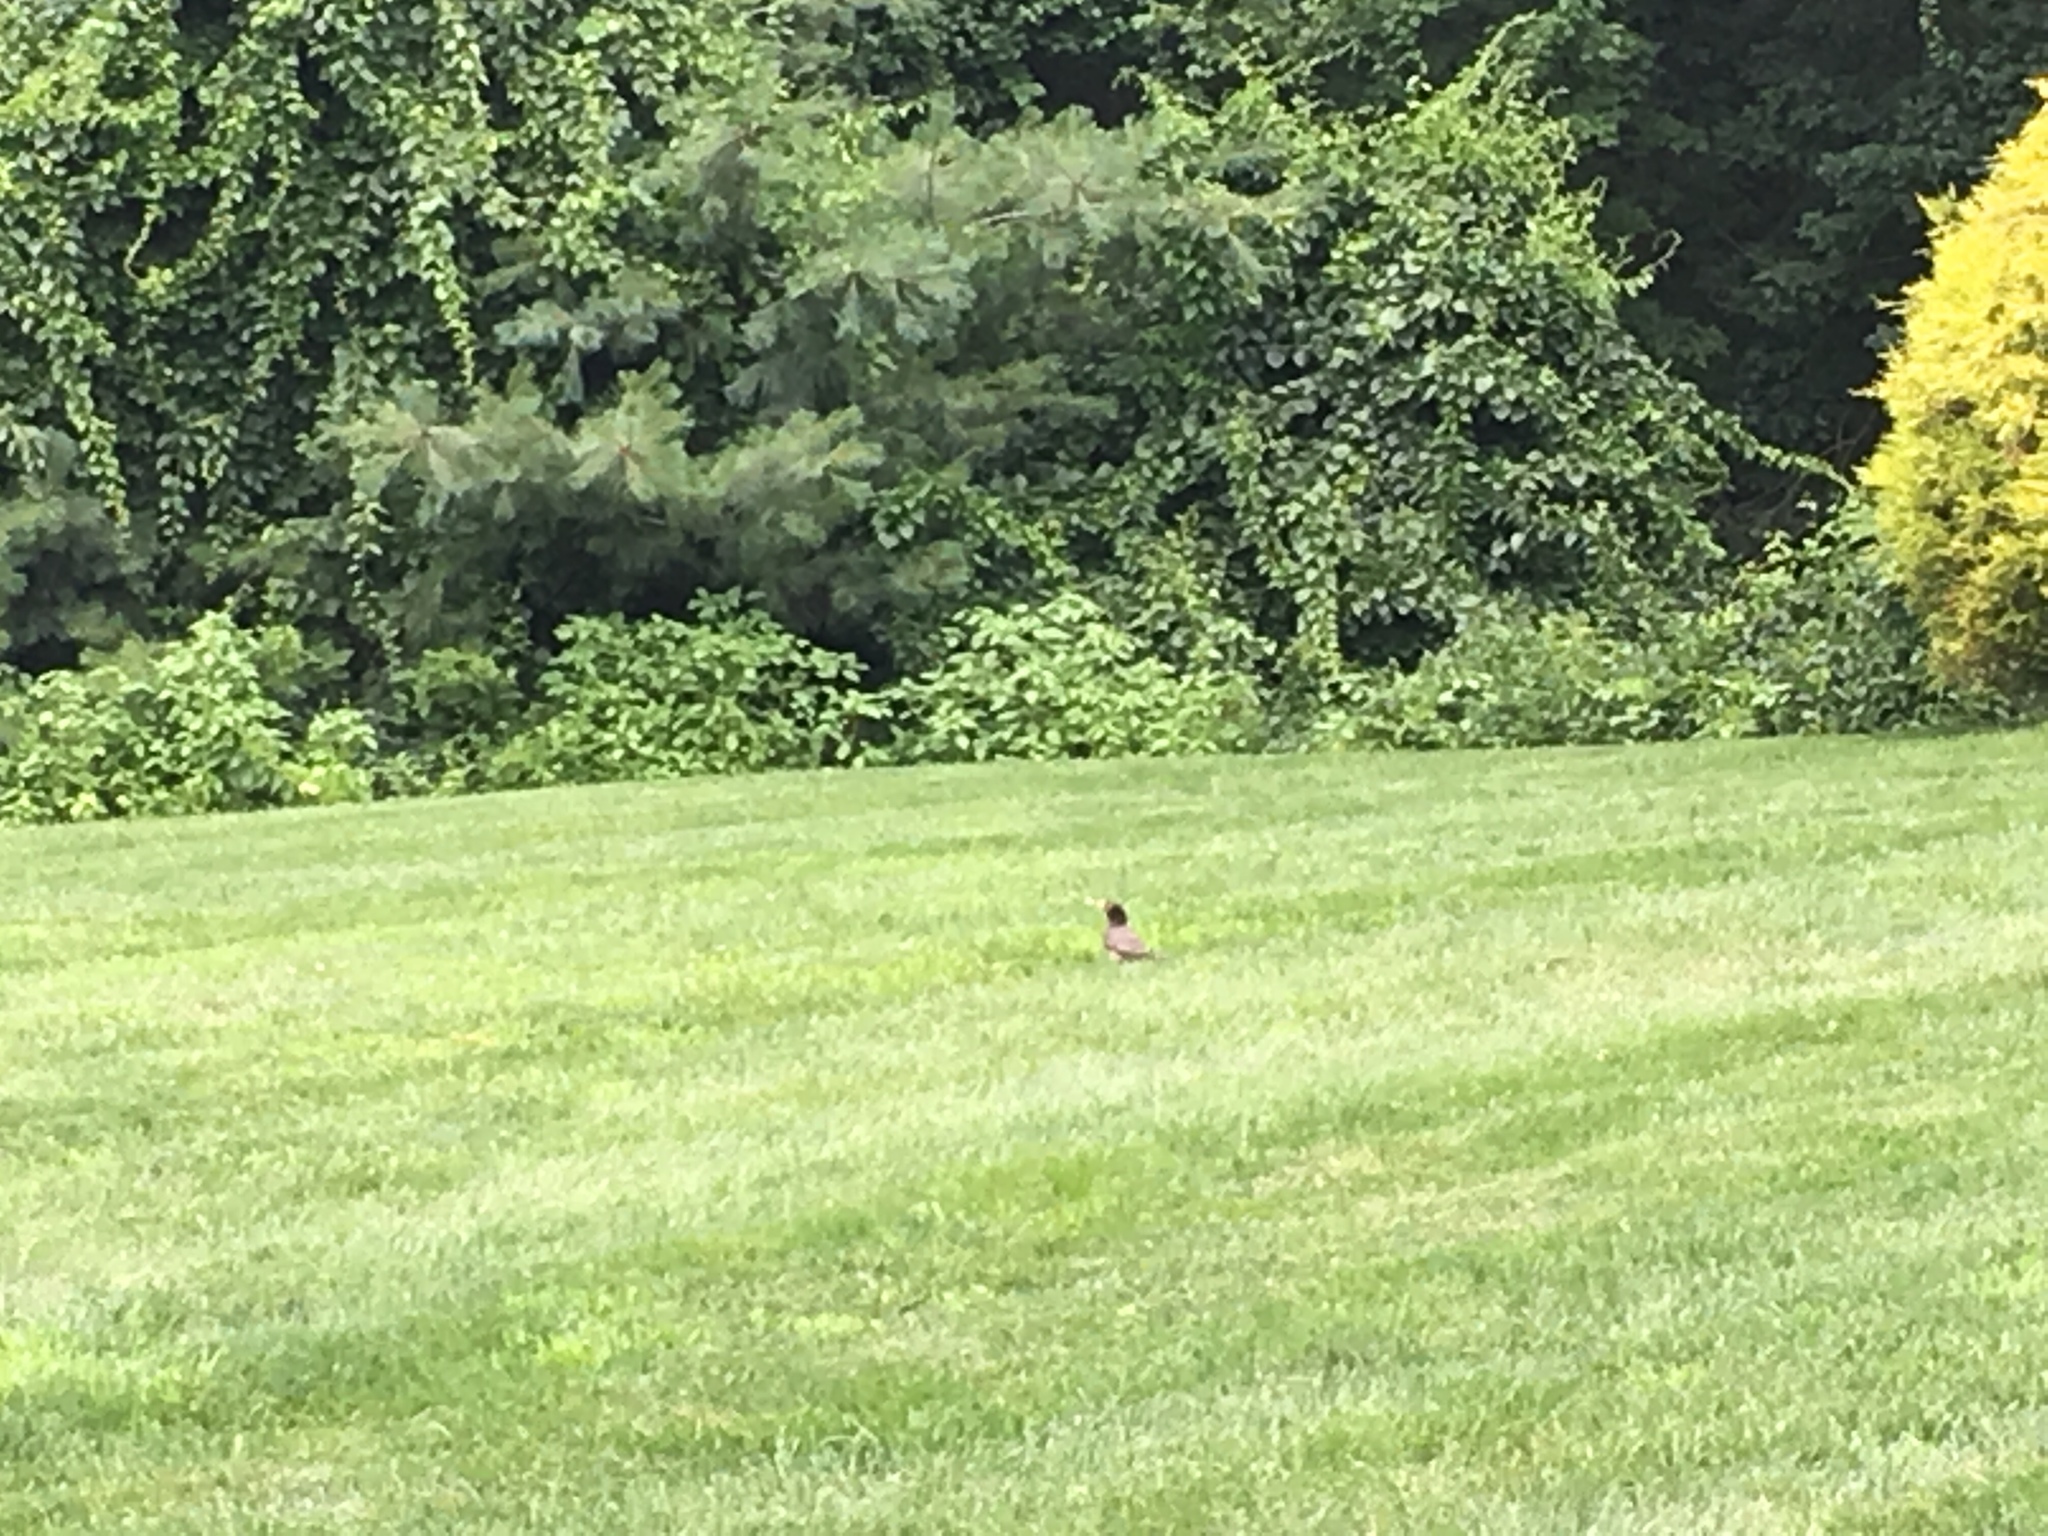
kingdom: Animalia
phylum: Chordata
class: Aves
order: Passeriformes
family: Turdidae
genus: Turdus
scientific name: Turdus migratorius
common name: American robin
